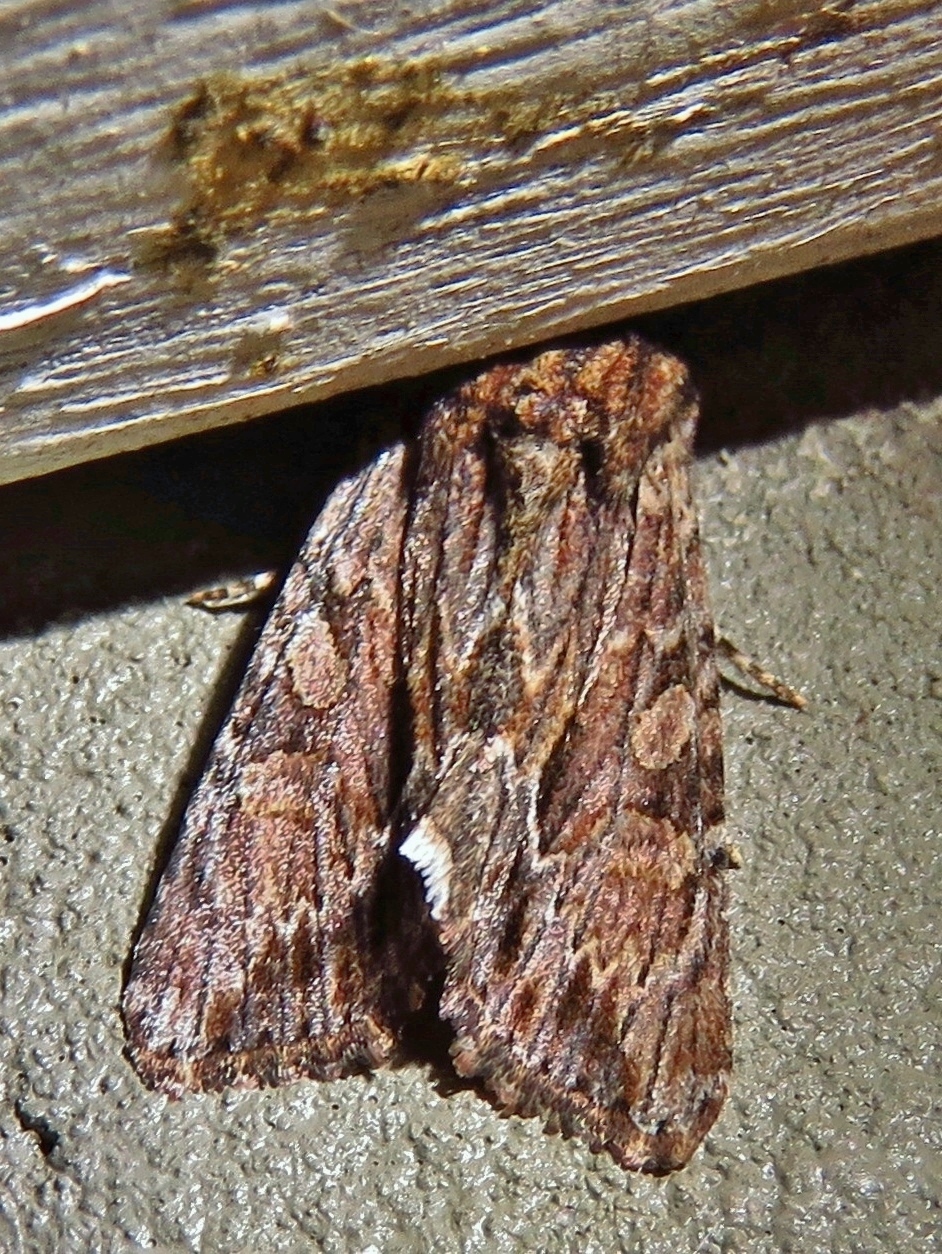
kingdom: Animalia
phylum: Arthropoda
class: Insecta
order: Lepidoptera
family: Noctuidae
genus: Achatia
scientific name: Achatia mucens
